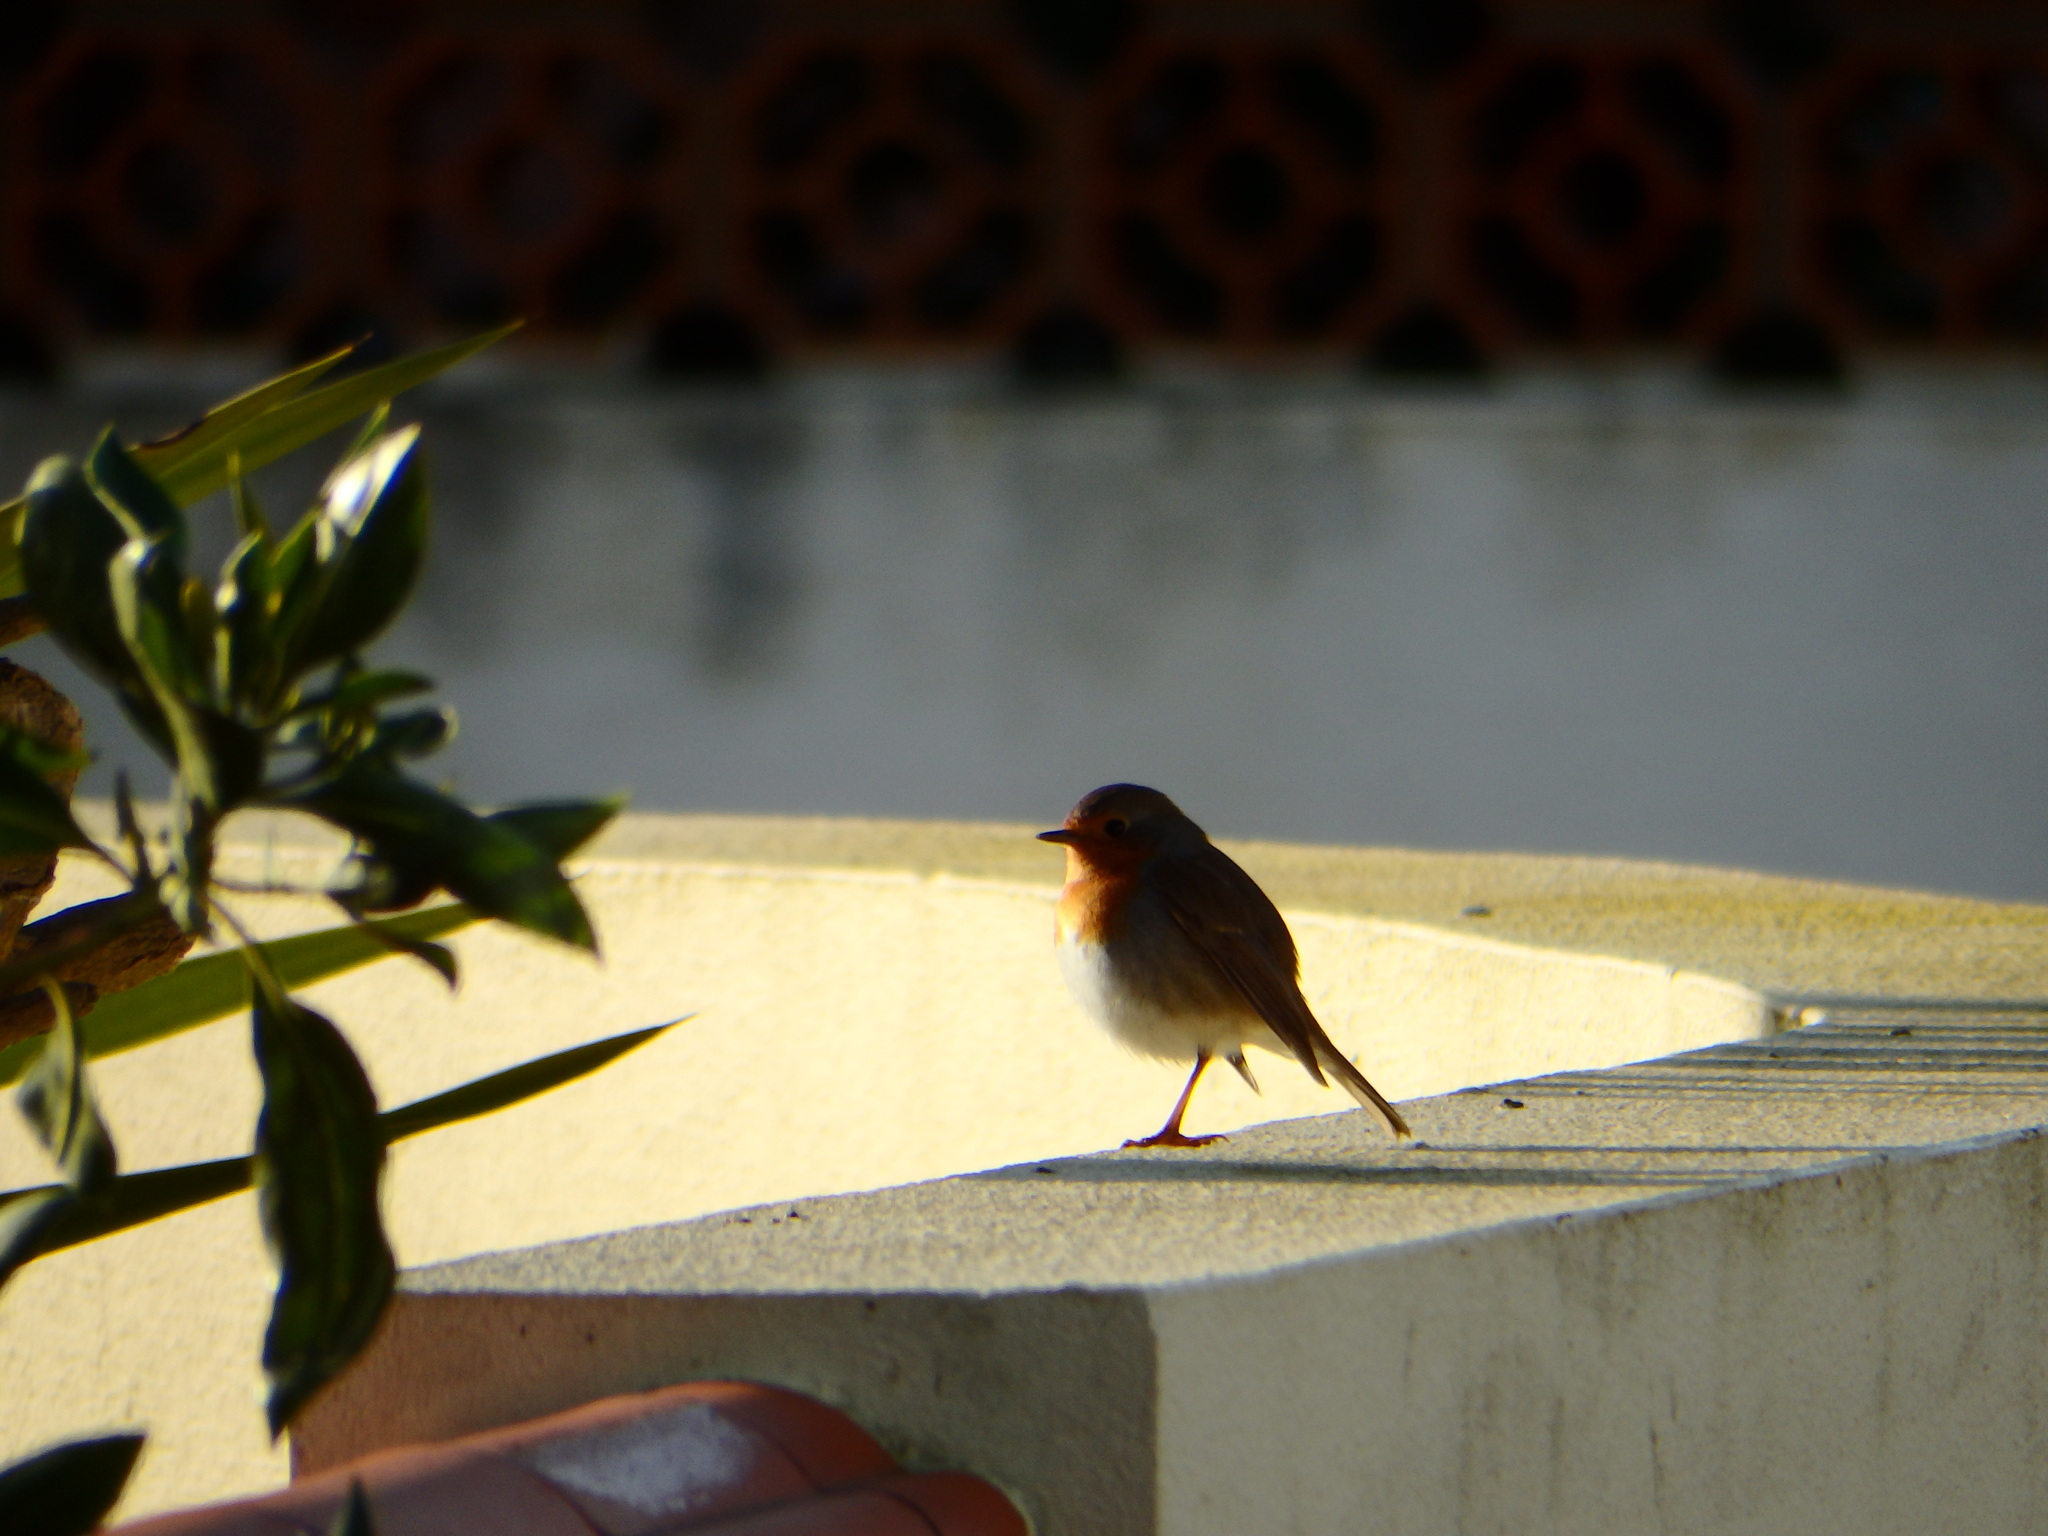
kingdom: Animalia
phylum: Chordata
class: Aves
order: Passeriformes
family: Muscicapidae
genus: Erithacus
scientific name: Erithacus rubecula
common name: European robin
